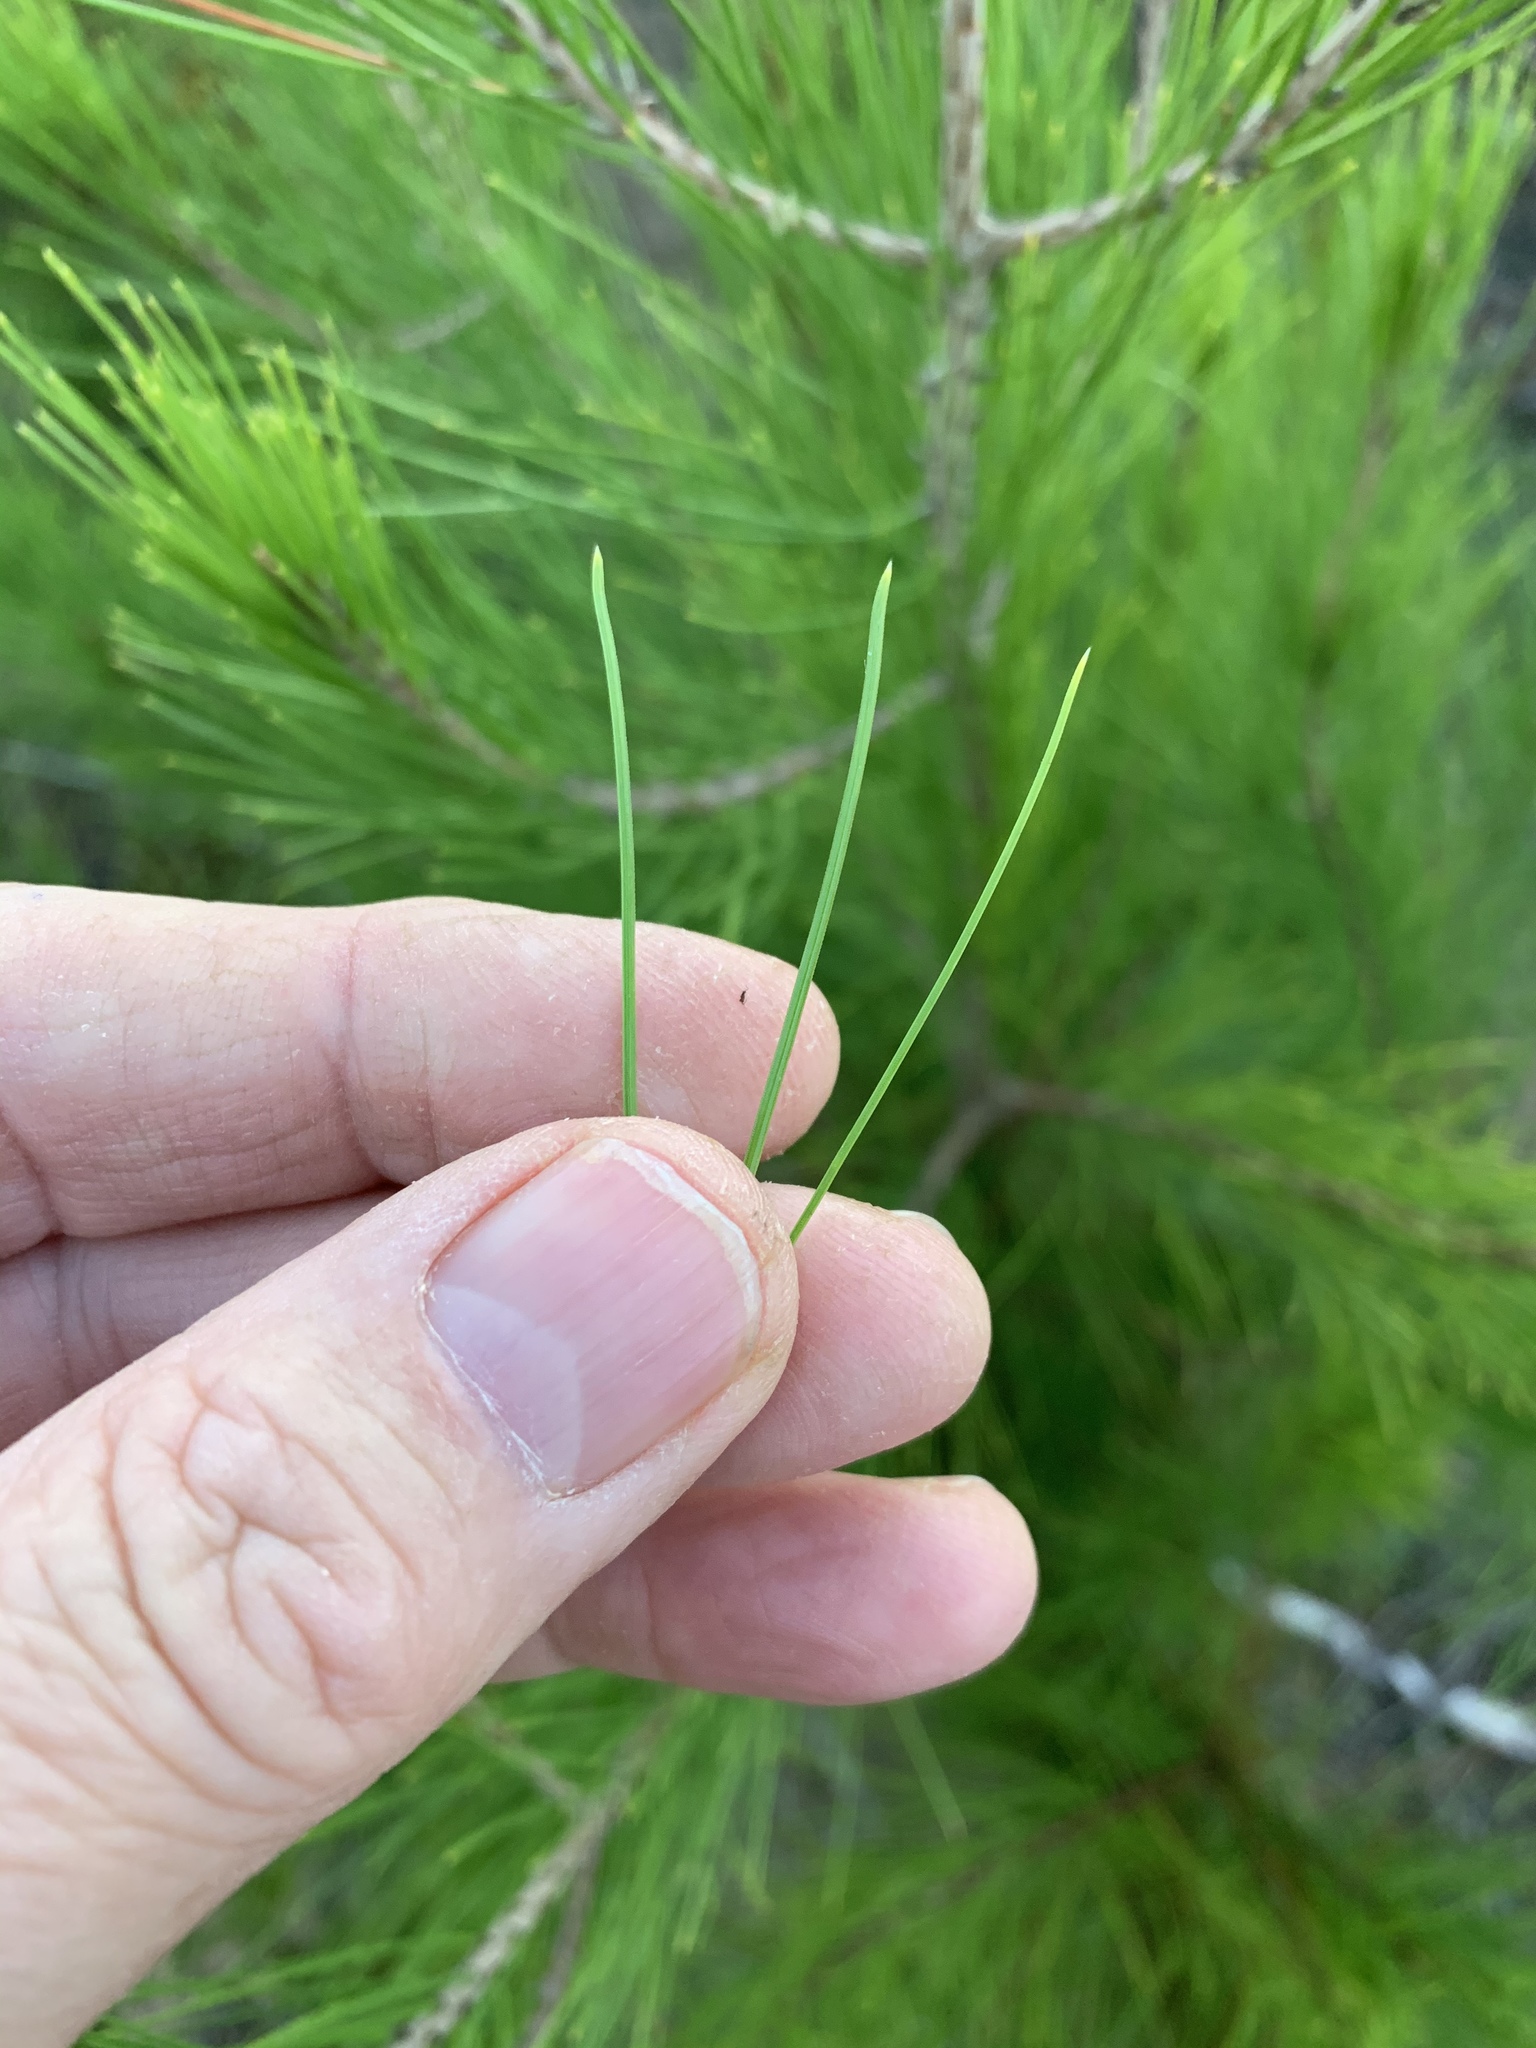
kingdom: Plantae
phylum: Tracheophyta
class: Pinopsida
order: Pinales
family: Pinaceae
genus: Pinus
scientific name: Pinus halepensis
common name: Aleppo pine
